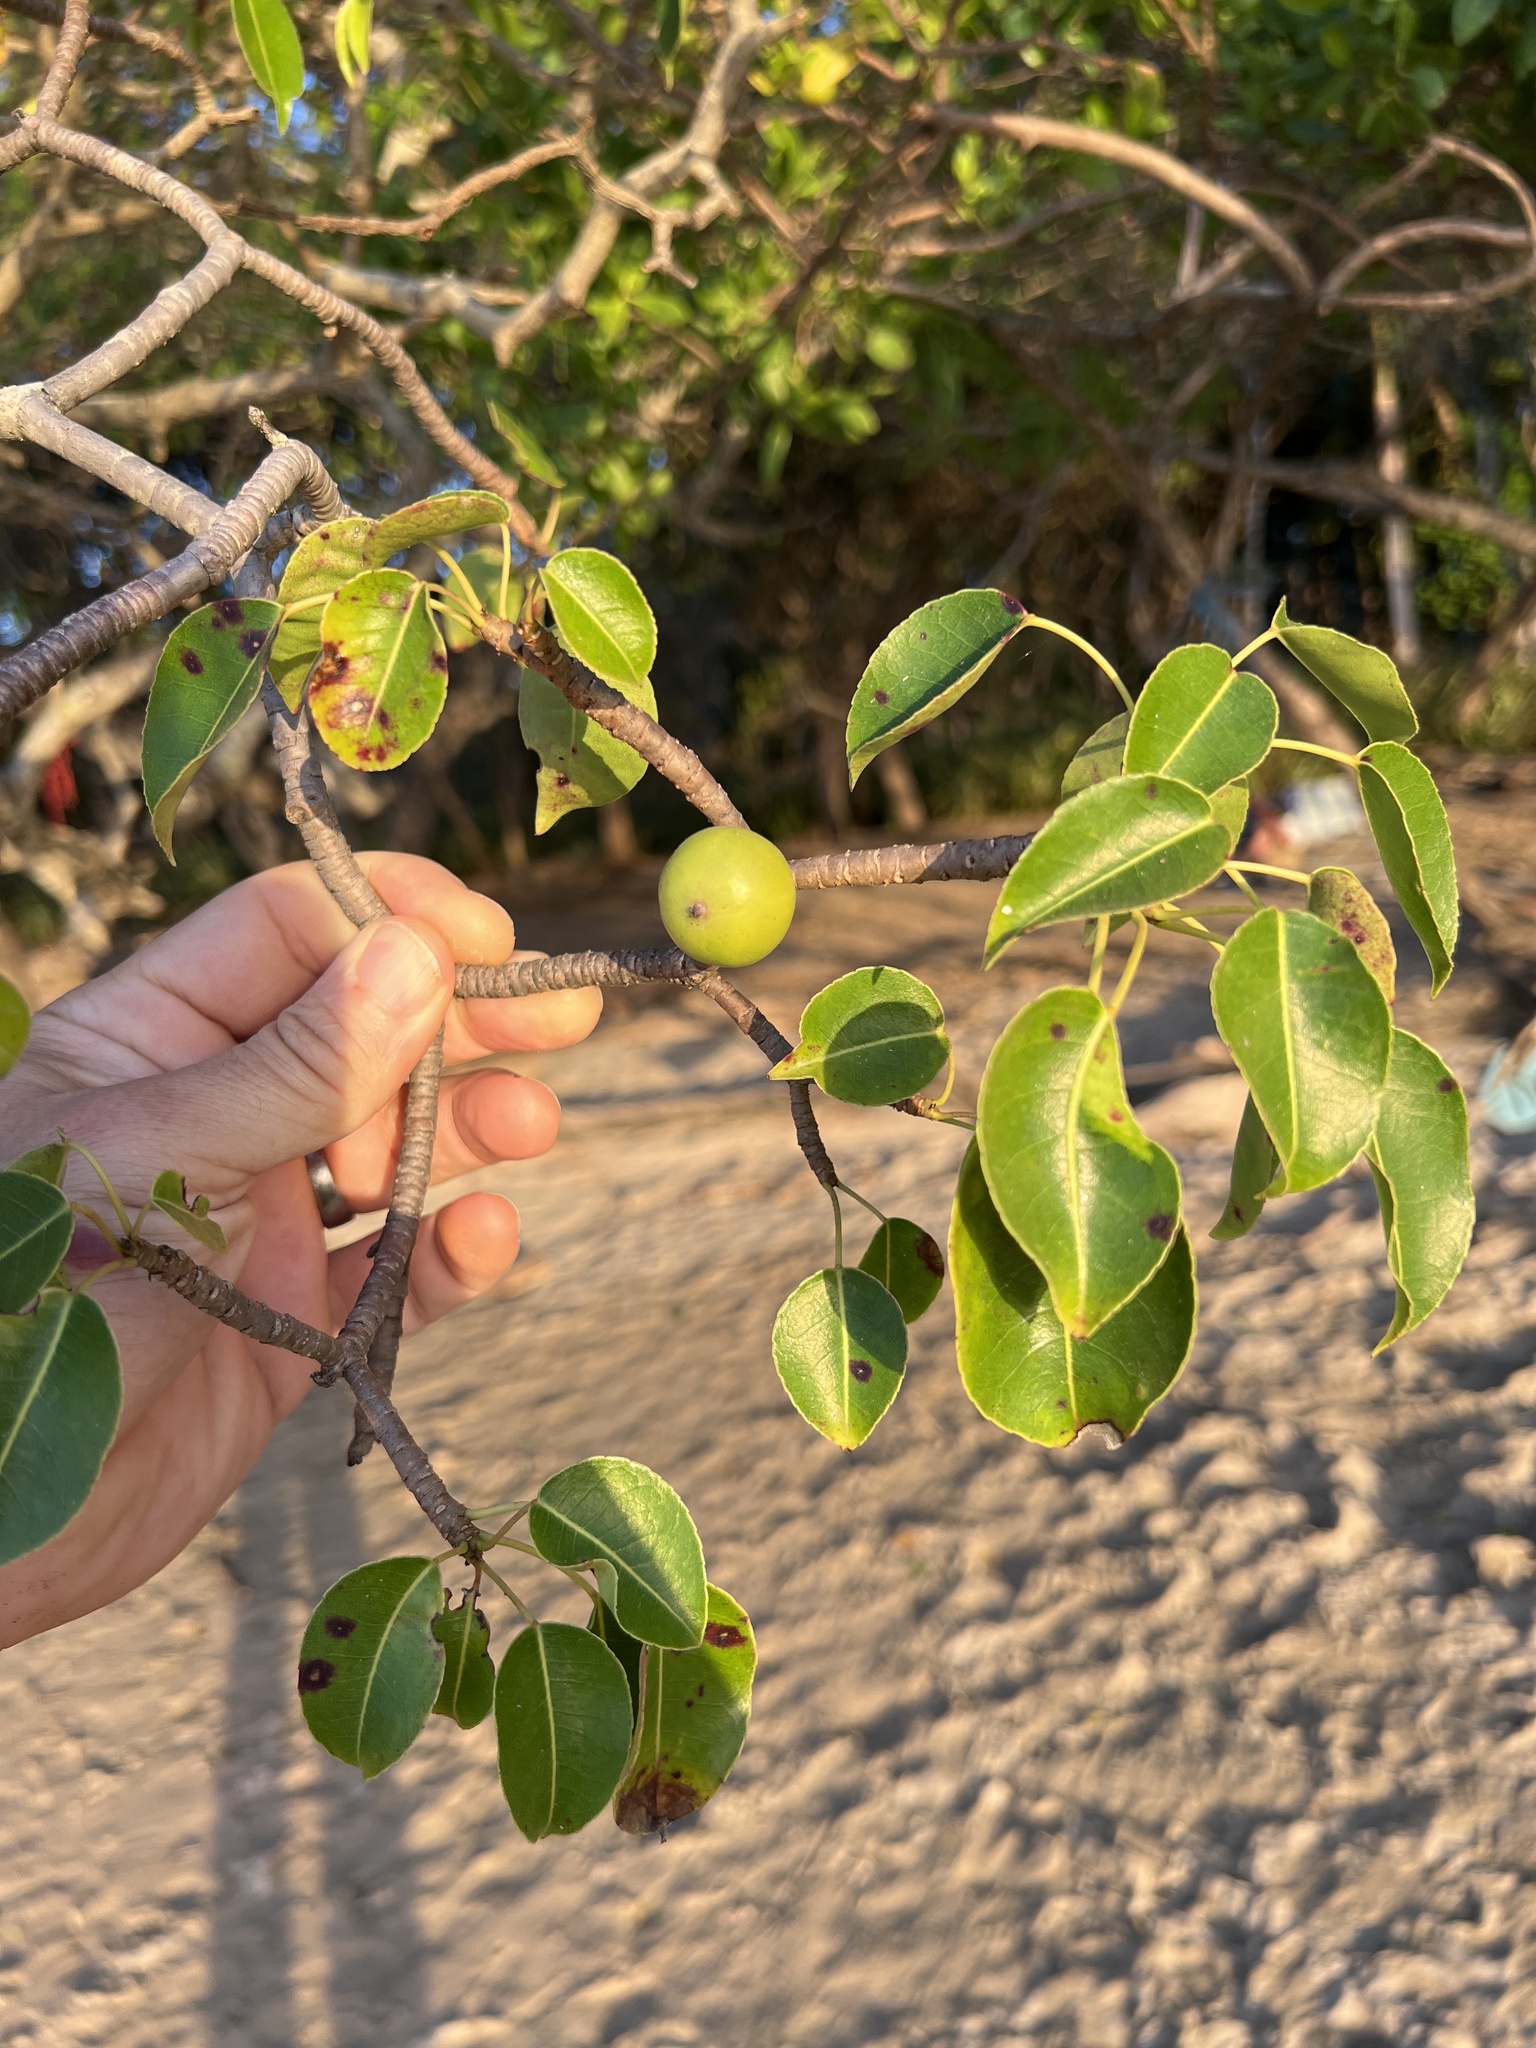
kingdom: Plantae
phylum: Tracheophyta
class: Magnoliopsida
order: Malpighiales
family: Euphorbiaceae
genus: Hippomane
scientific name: Hippomane mancinella
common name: Manchineel
